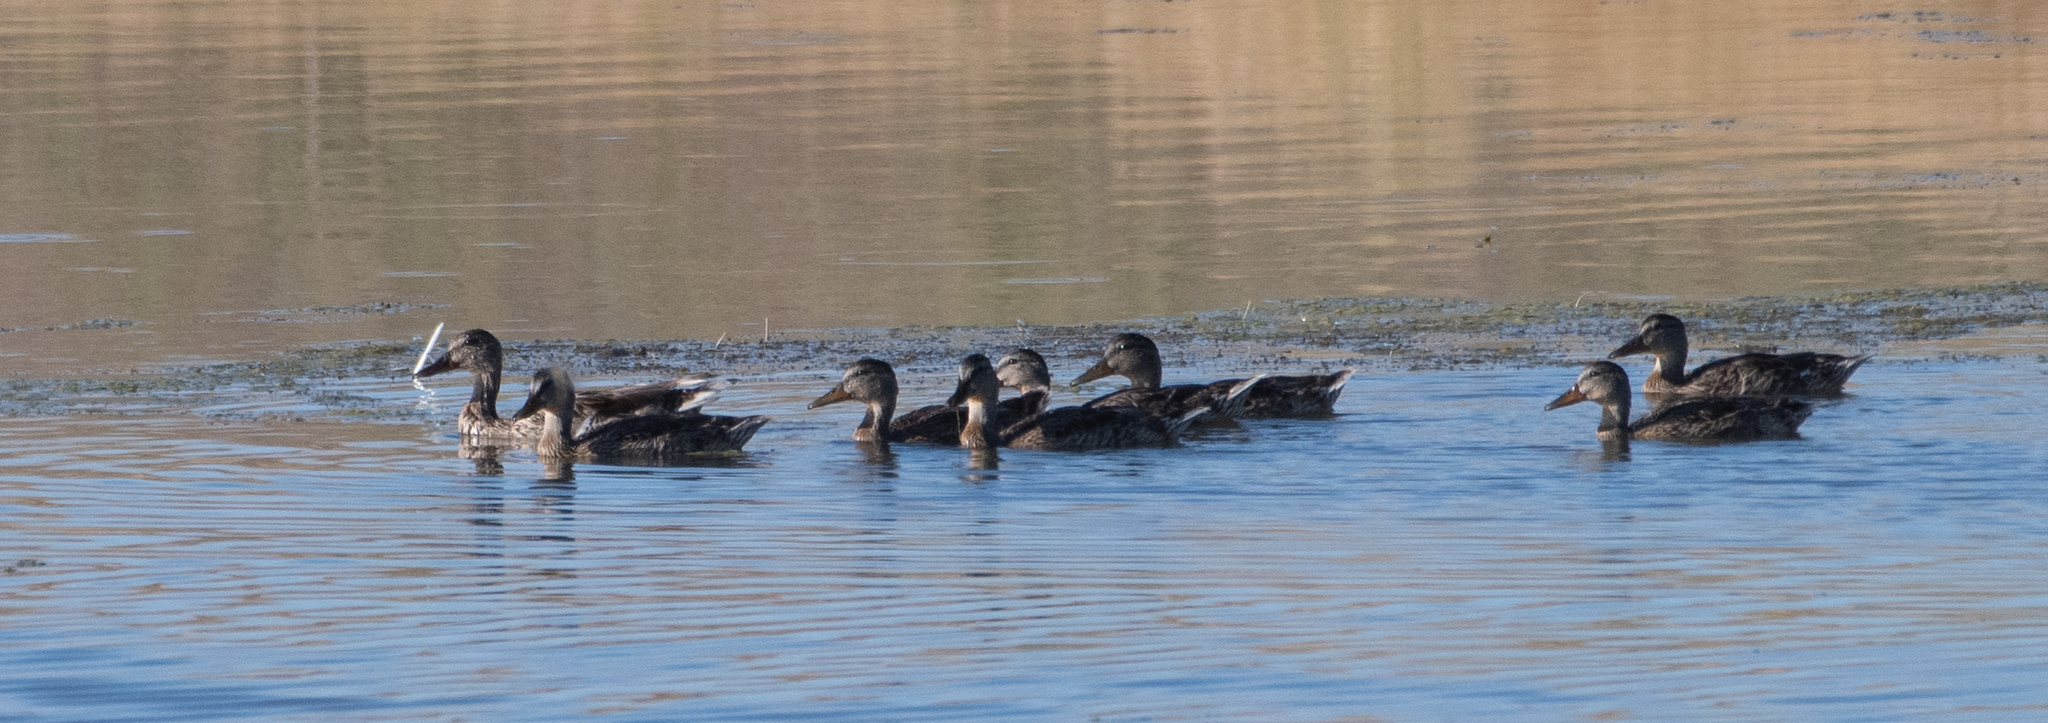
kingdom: Animalia
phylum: Chordata
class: Aves
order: Anseriformes
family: Anatidae
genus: Anas
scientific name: Anas platyrhynchos
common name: Mallard
